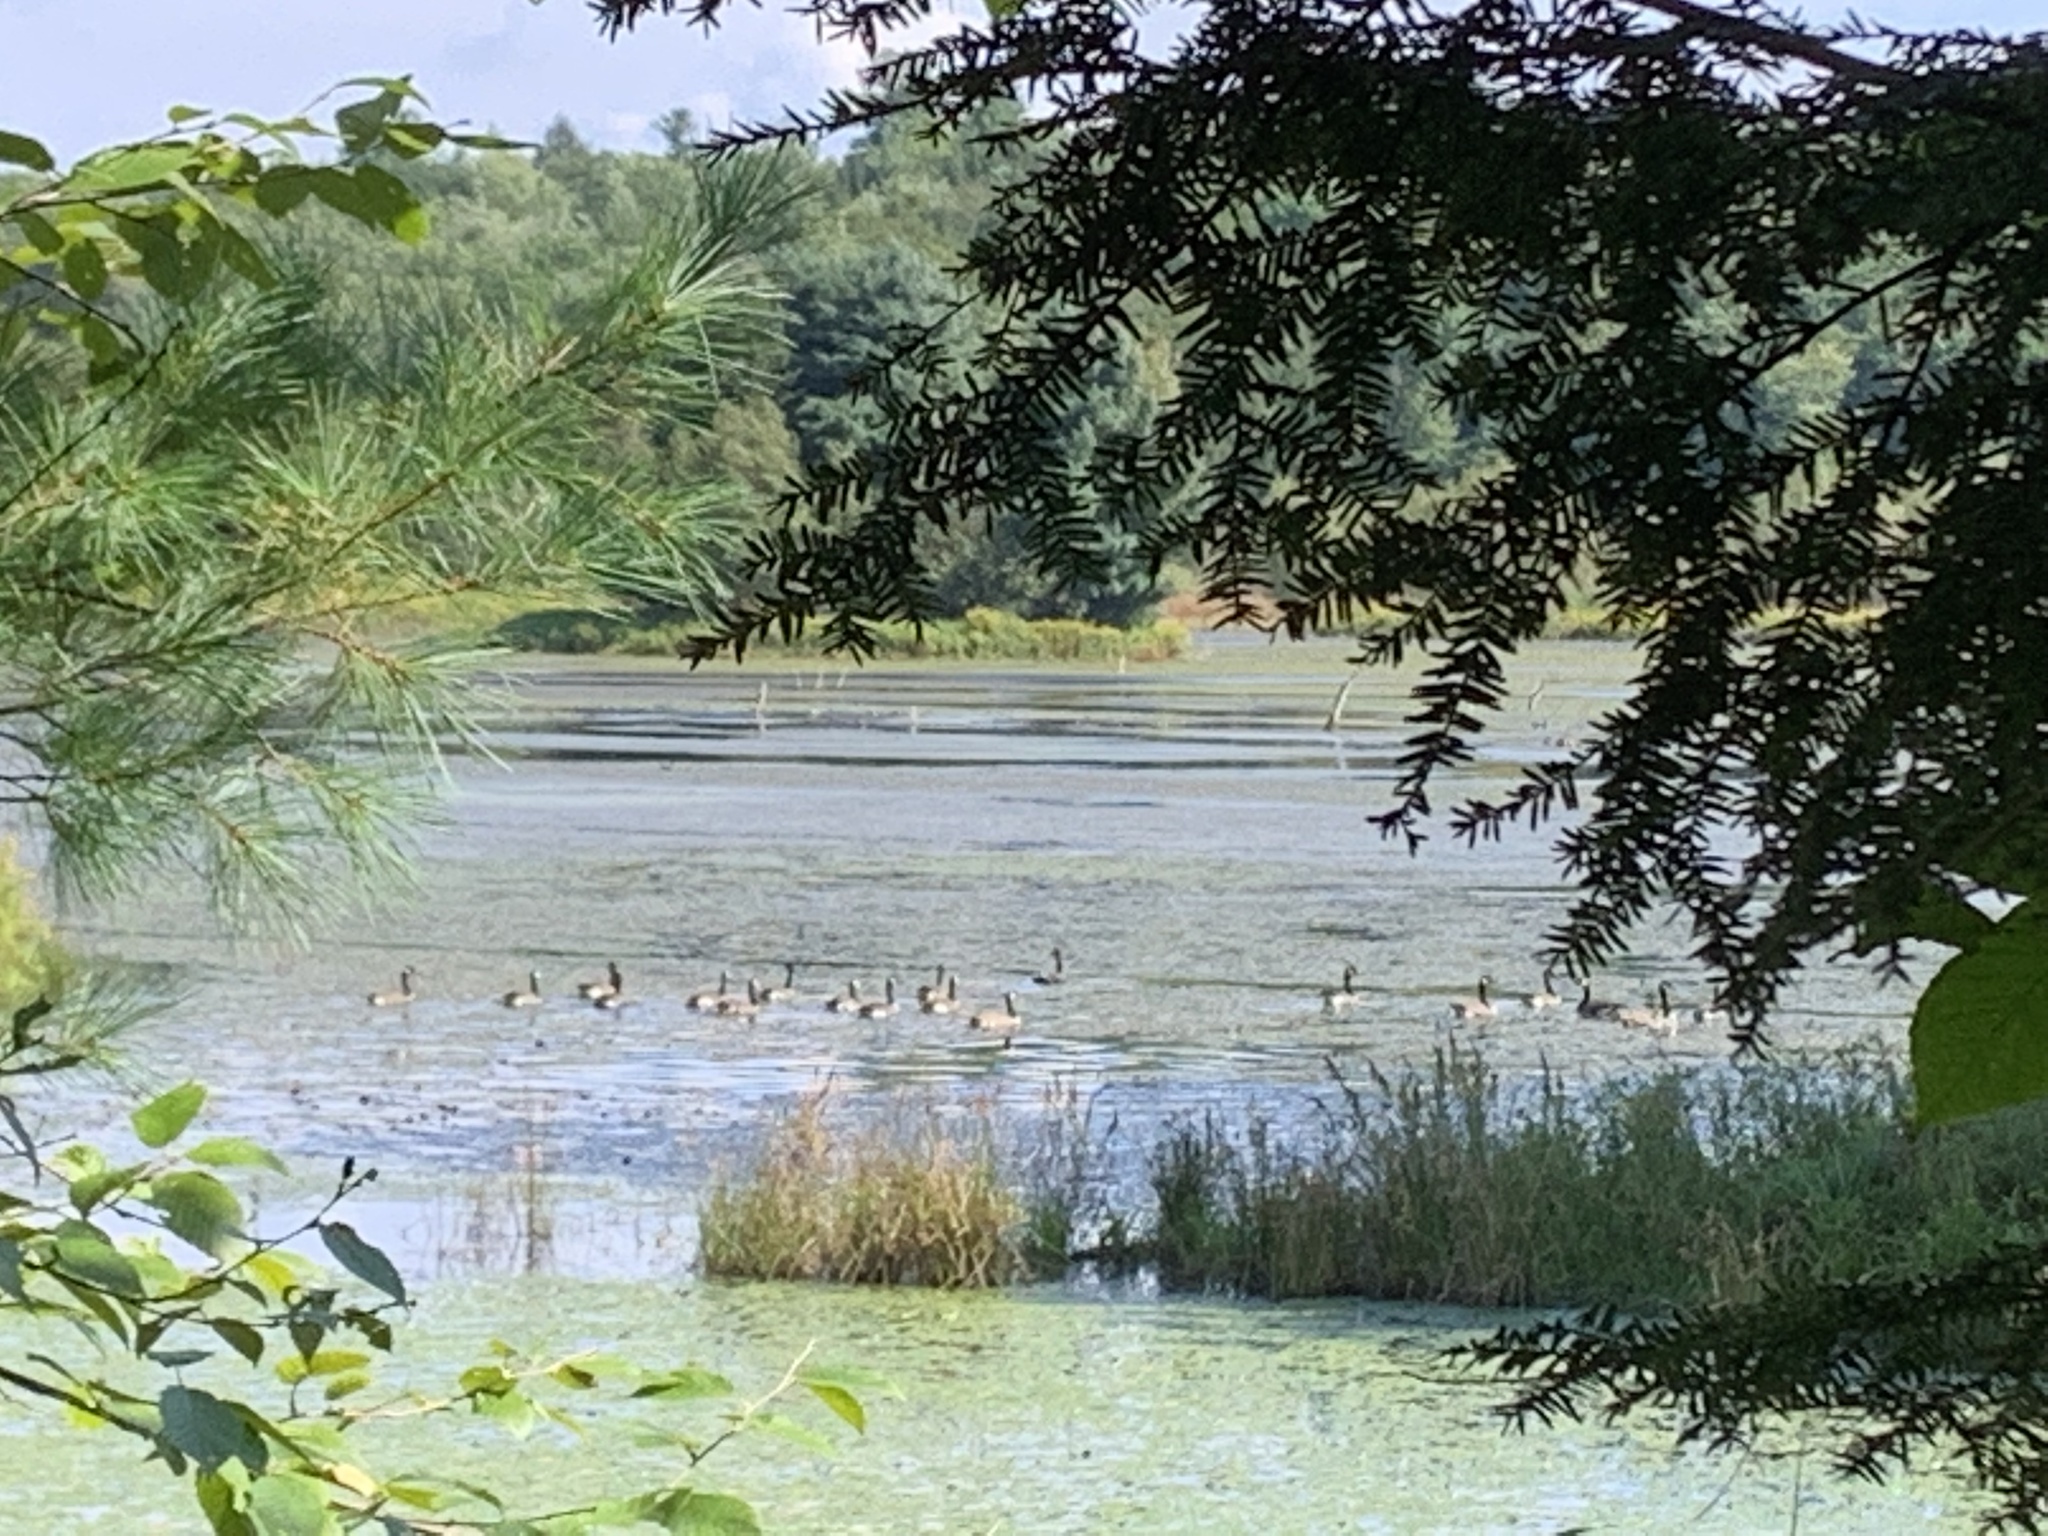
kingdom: Animalia
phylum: Chordata
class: Aves
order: Anseriformes
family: Anatidae
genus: Branta
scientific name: Branta canadensis
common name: Canada goose
